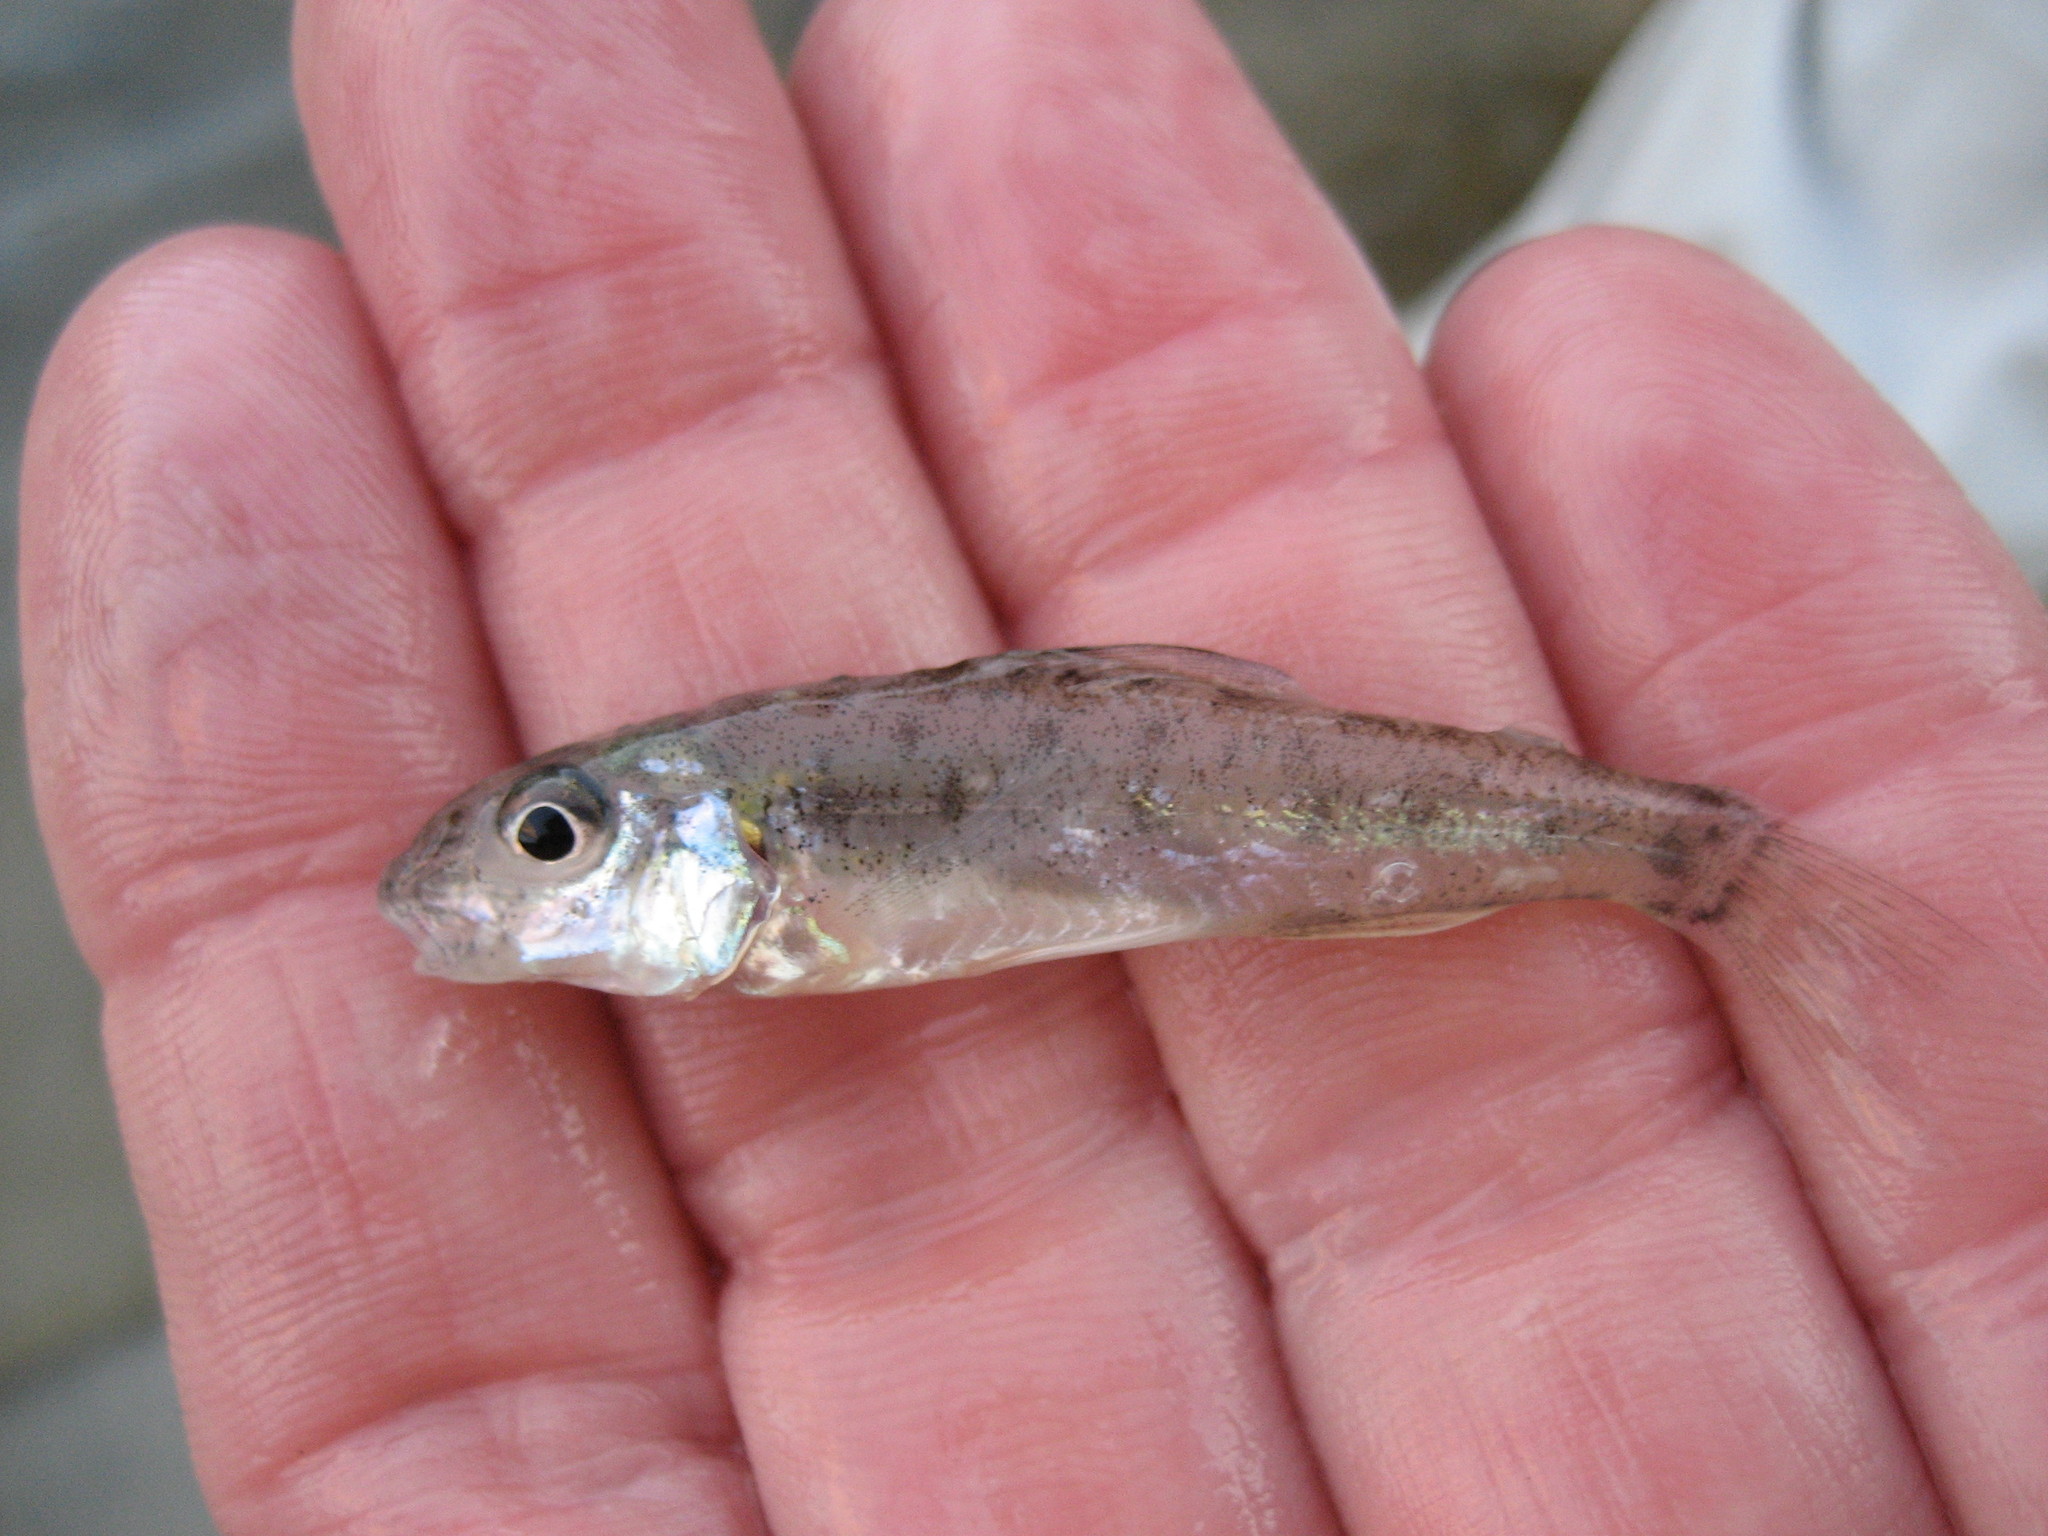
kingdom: Animalia
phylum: Chordata
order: Percopsiformes
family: Percopsidae
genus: Percopsis
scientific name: Percopsis omiscomaycus
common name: Trout-perch
